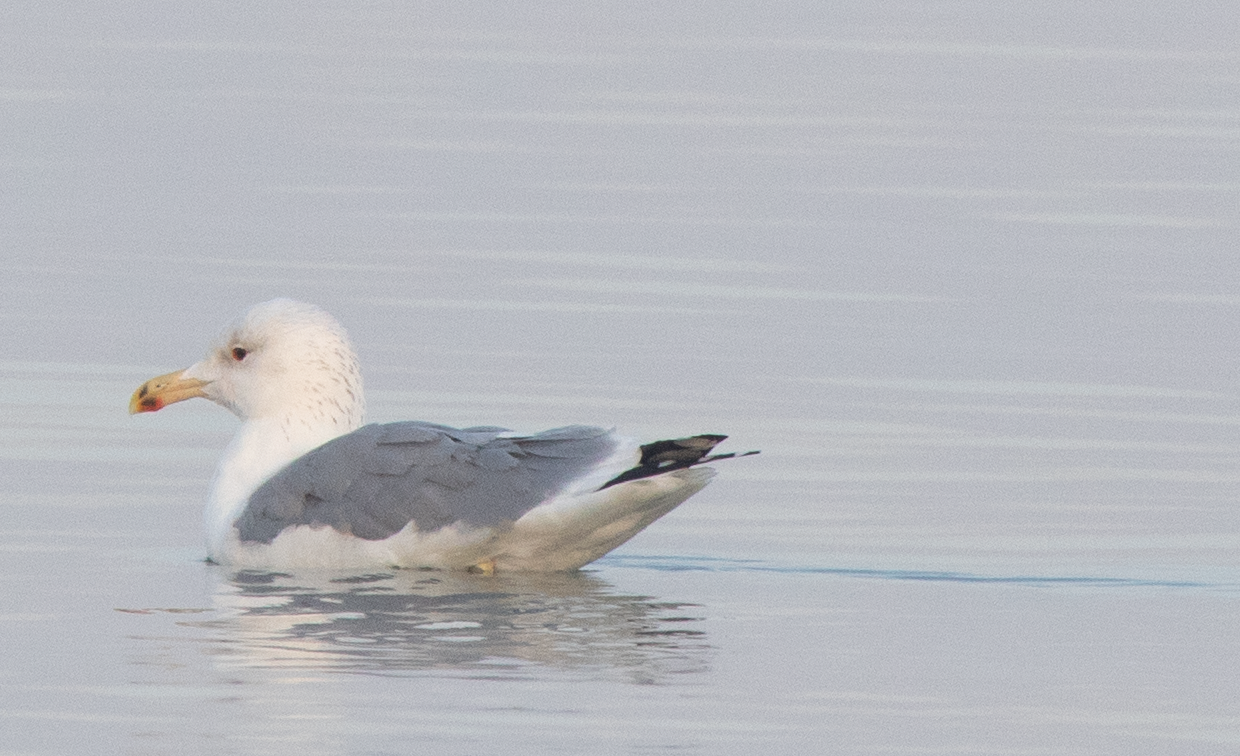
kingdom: Animalia
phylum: Chordata
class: Aves
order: Charadriiformes
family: Laridae
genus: Larus
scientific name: Larus michahellis
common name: Yellow-legged gull
